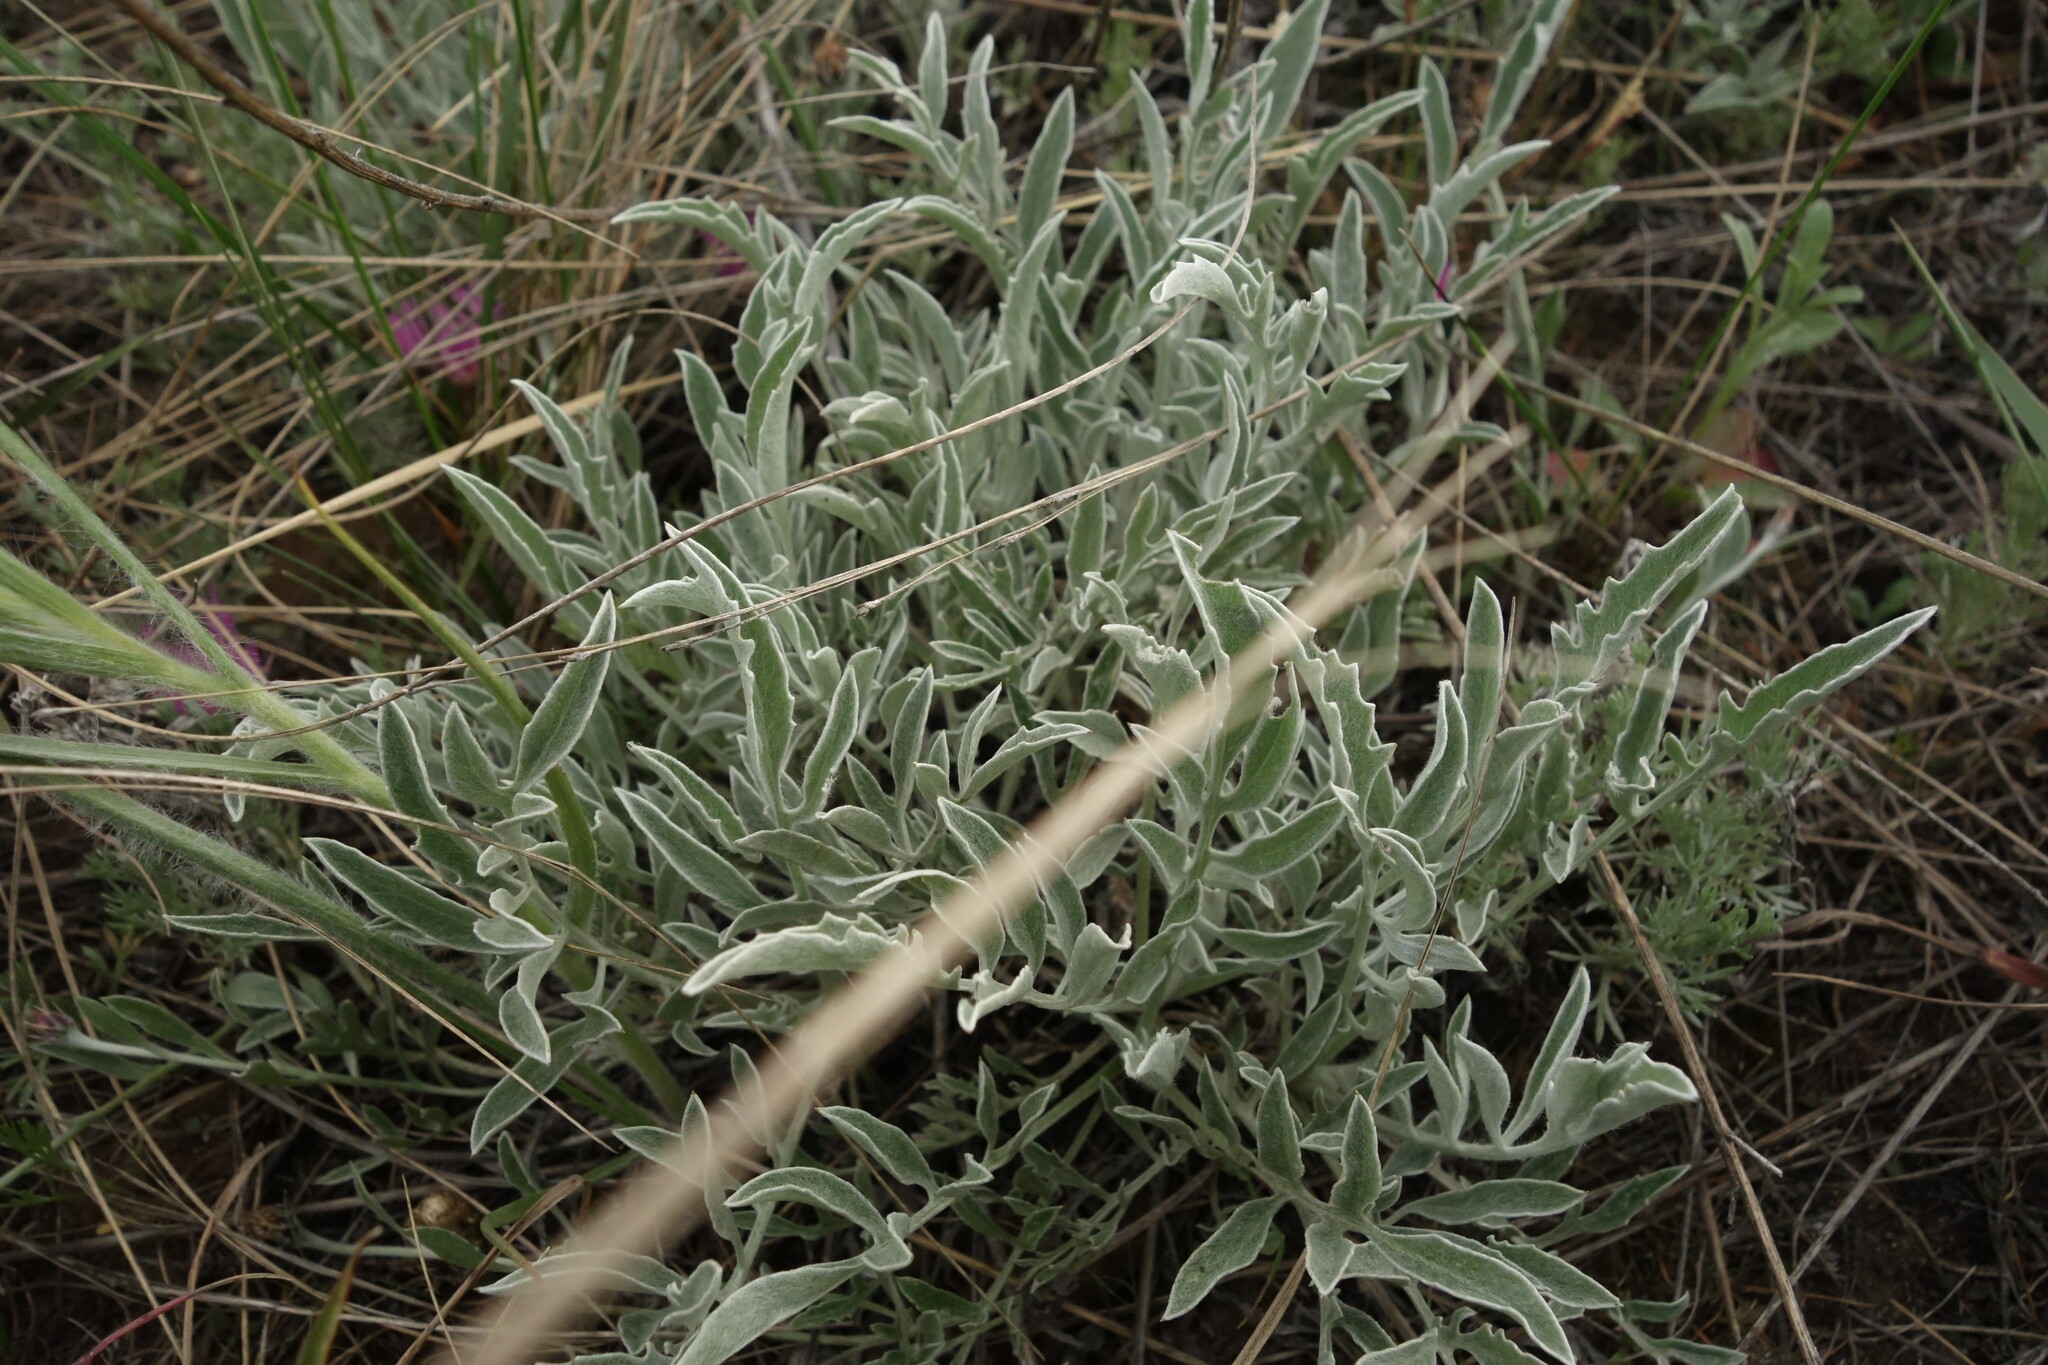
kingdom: Plantae
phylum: Tracheophyta
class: Magnoliopsida
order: Asterales
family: Asteraceae
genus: Psephellus
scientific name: Psephellus marschallianus
